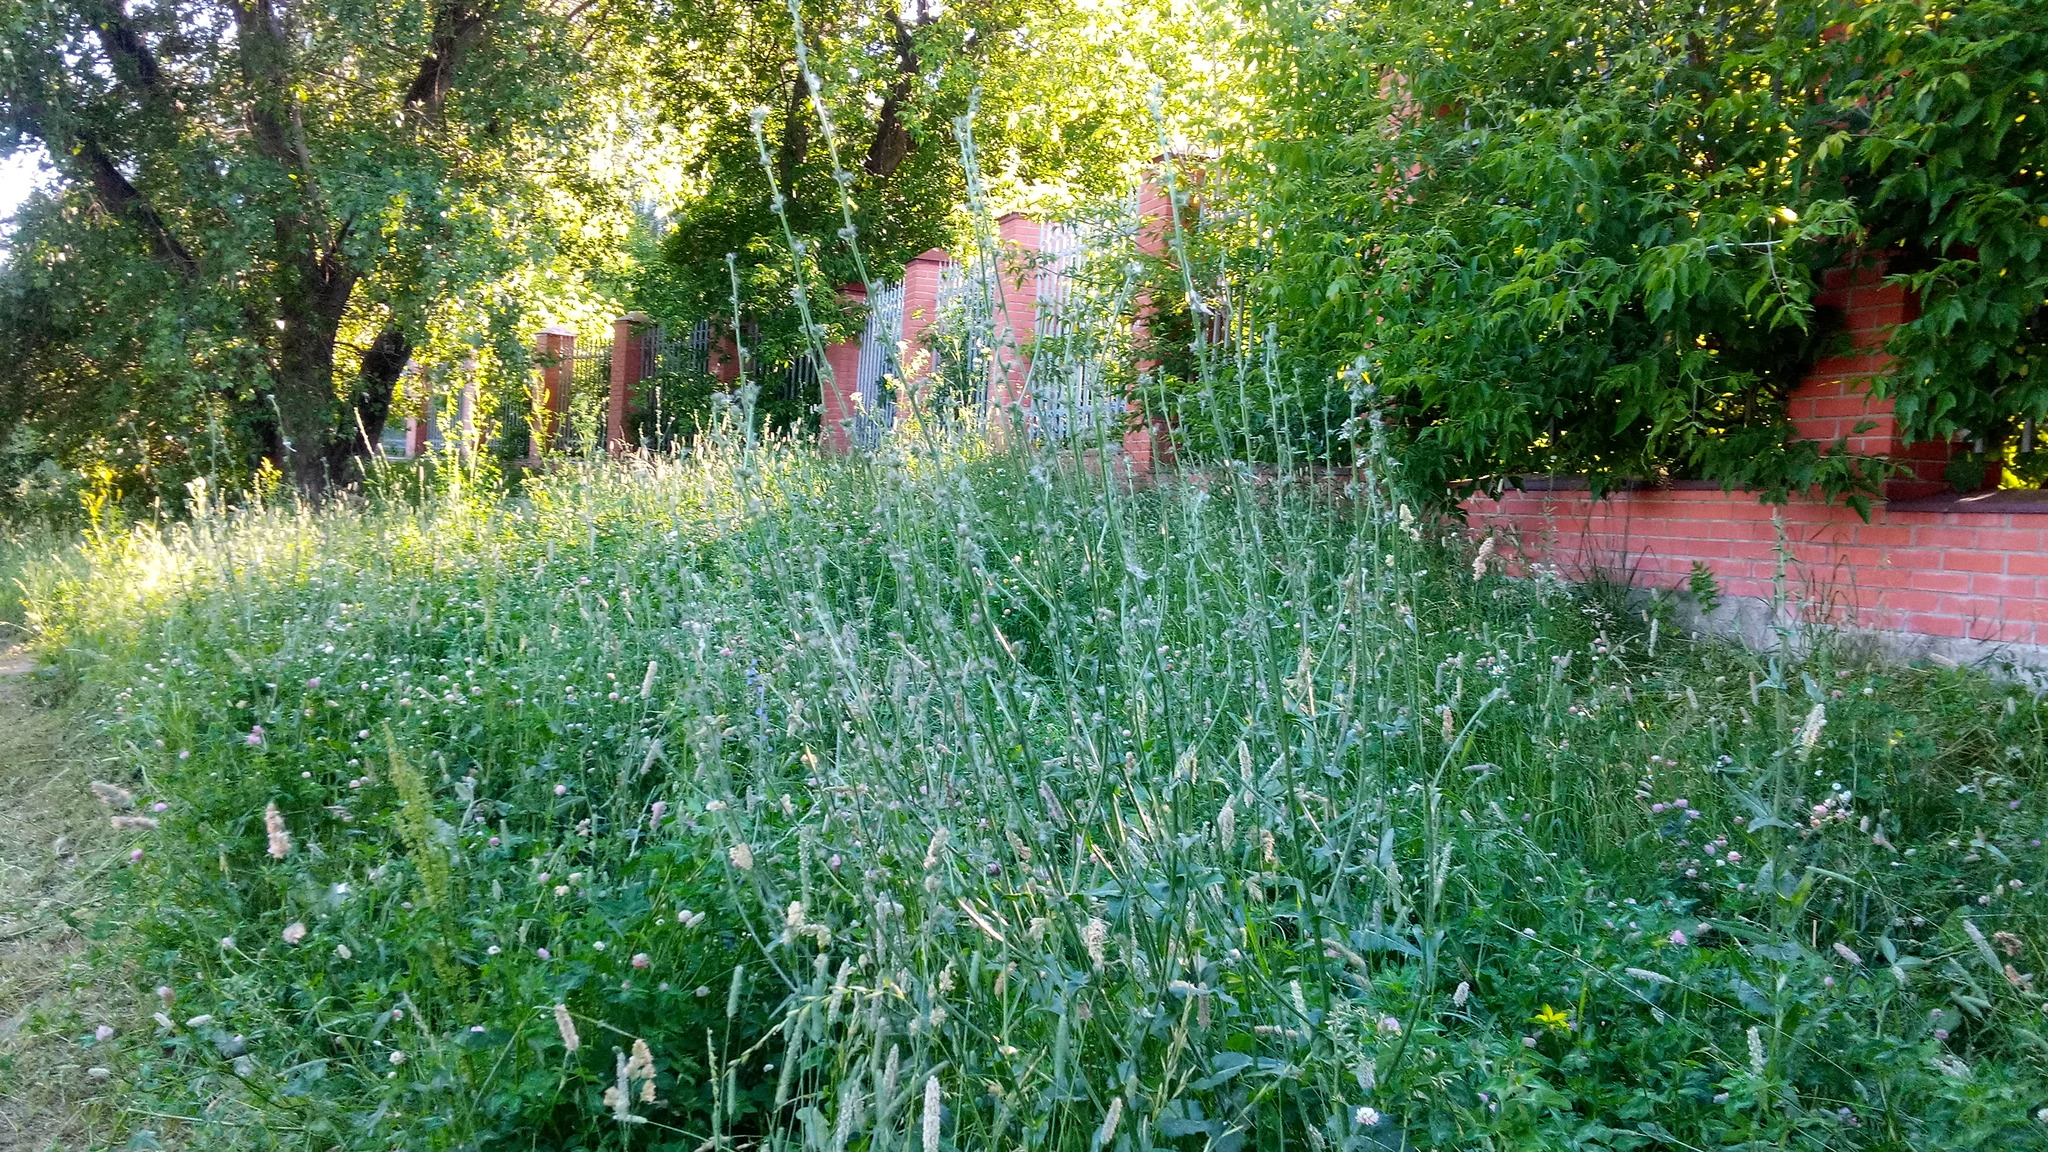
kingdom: Plantae
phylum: Tracheophyta
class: Magnoliopsida
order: Asterales
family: Asteraceae
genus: Cichorium
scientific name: Cichorium intybus
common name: Chicory
